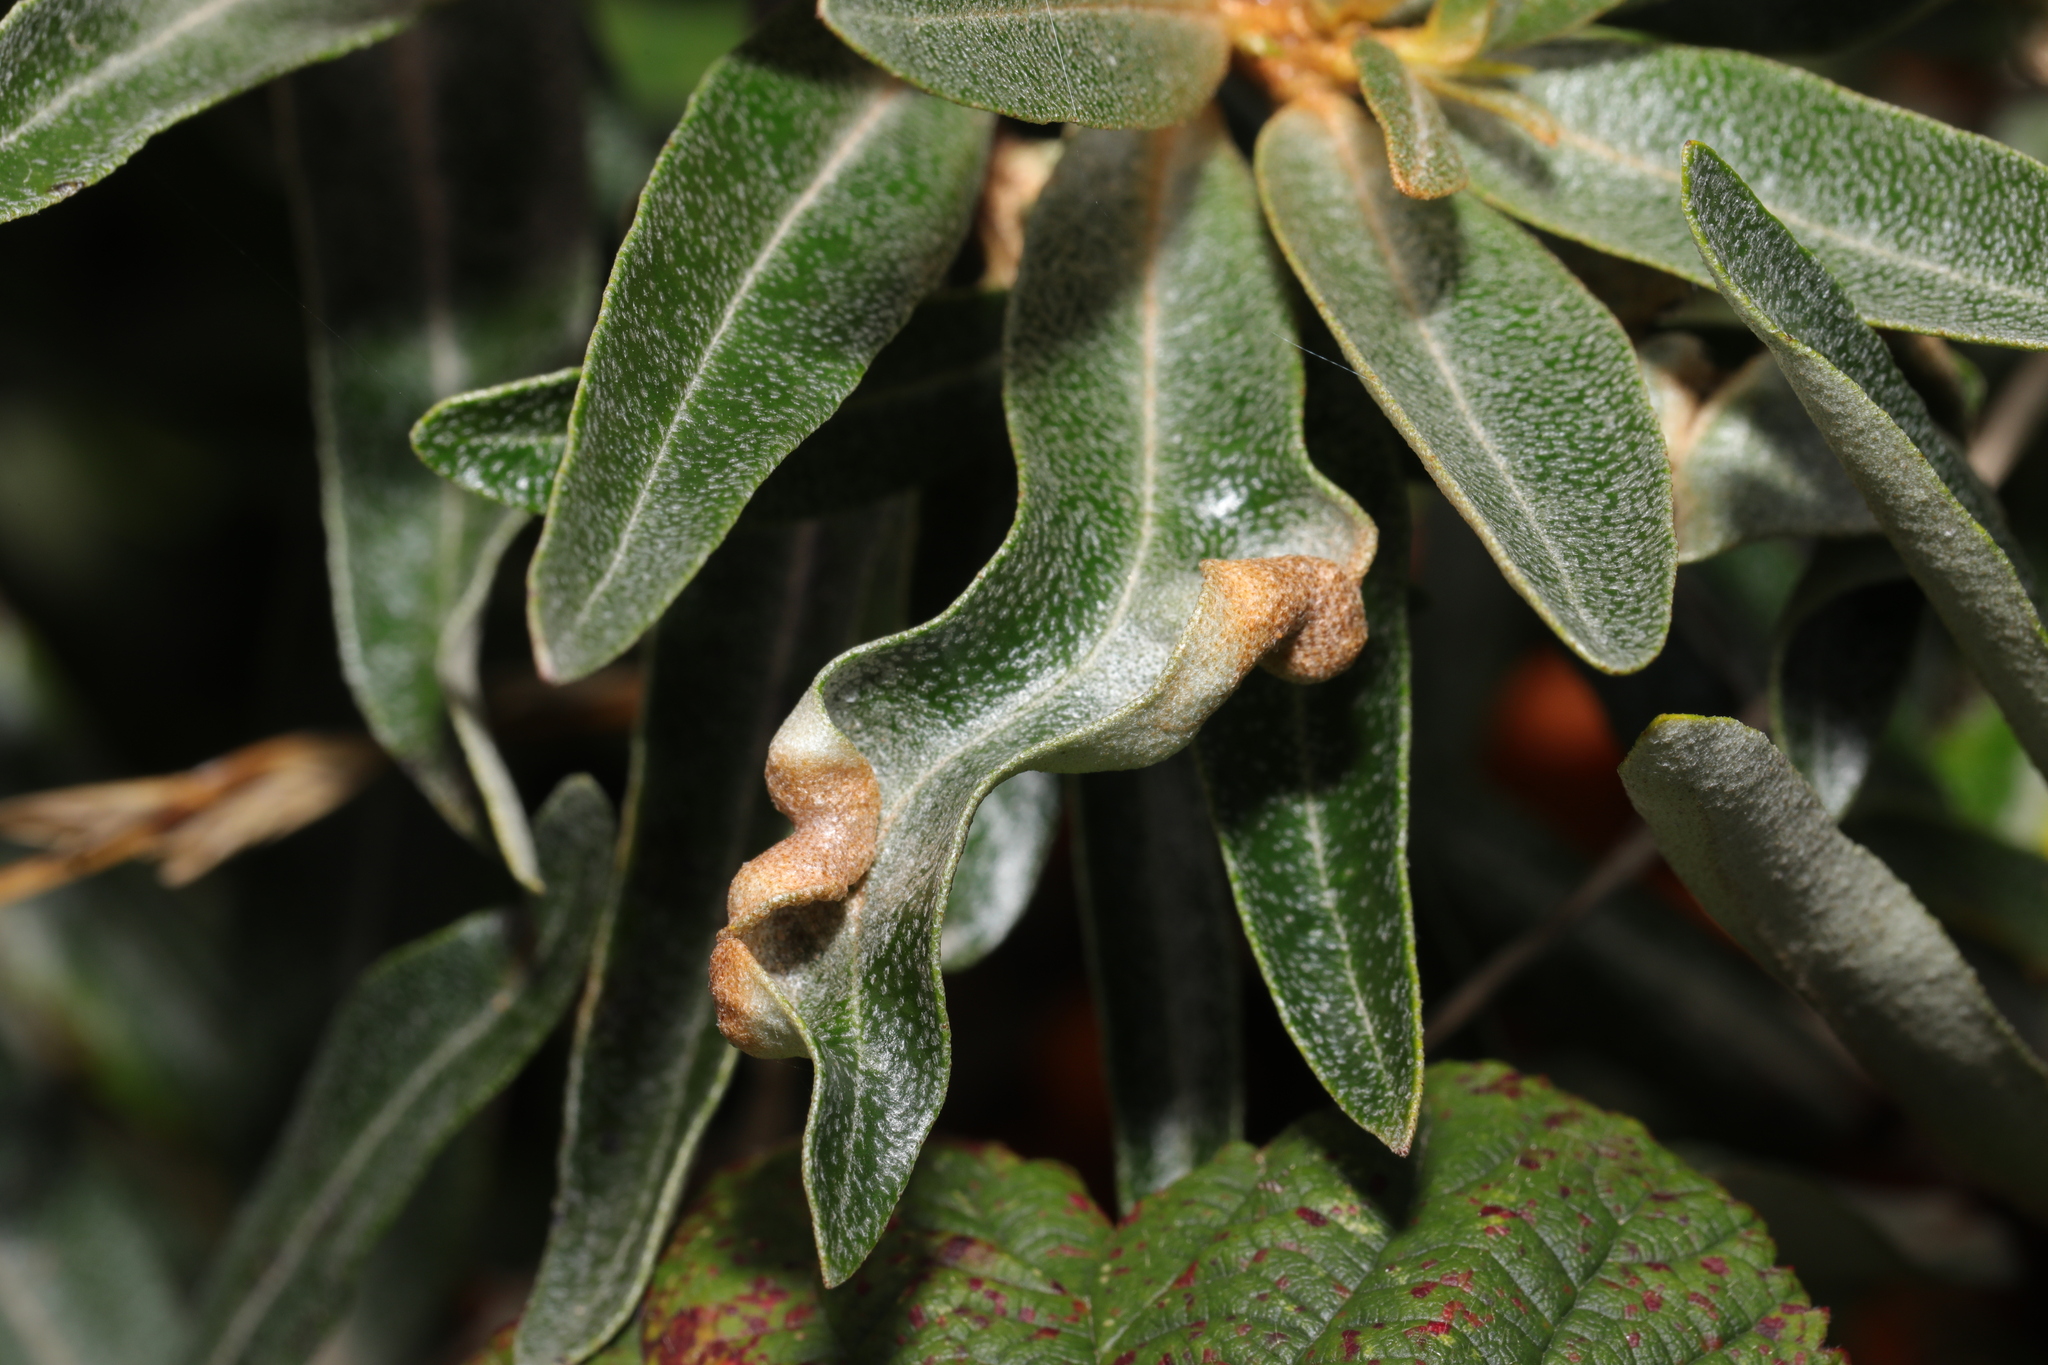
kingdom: Animalia
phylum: Arthropoda
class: Arachnida
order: Trombidiformes
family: Eriophyidae
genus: Aceria
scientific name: Aceria hippophaena
